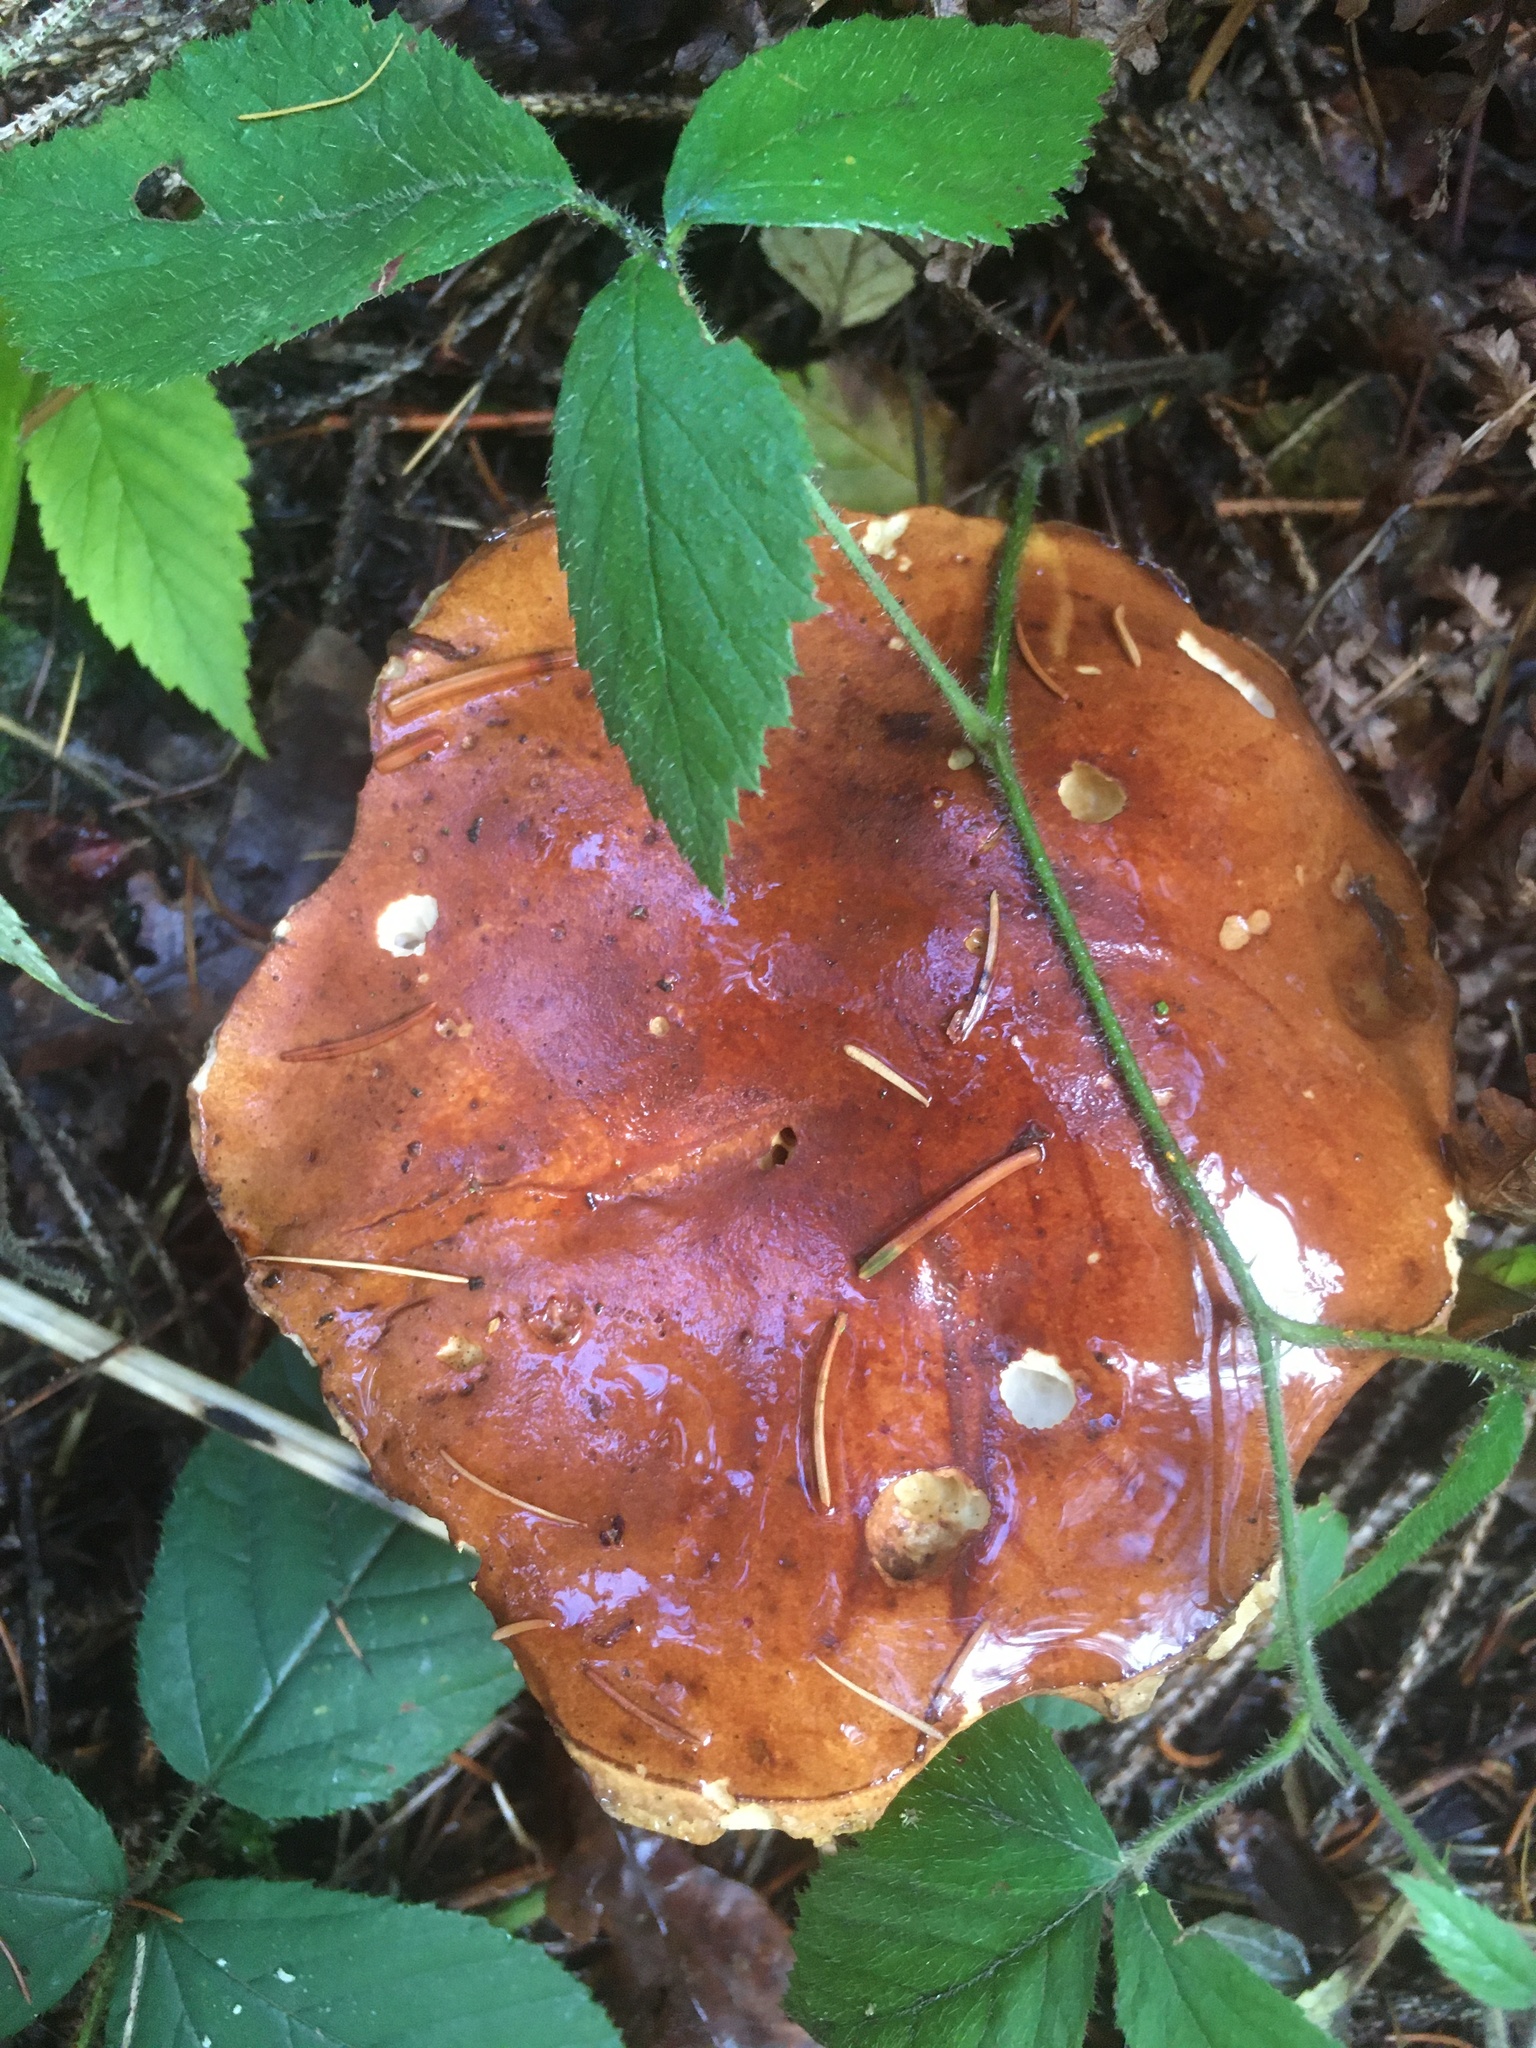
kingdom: Fungi
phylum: Basidiomycota
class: Agaricomycetes
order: Boletales
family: Boletaceae
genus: Imleria
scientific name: Imleria badia
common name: Bay bolete
